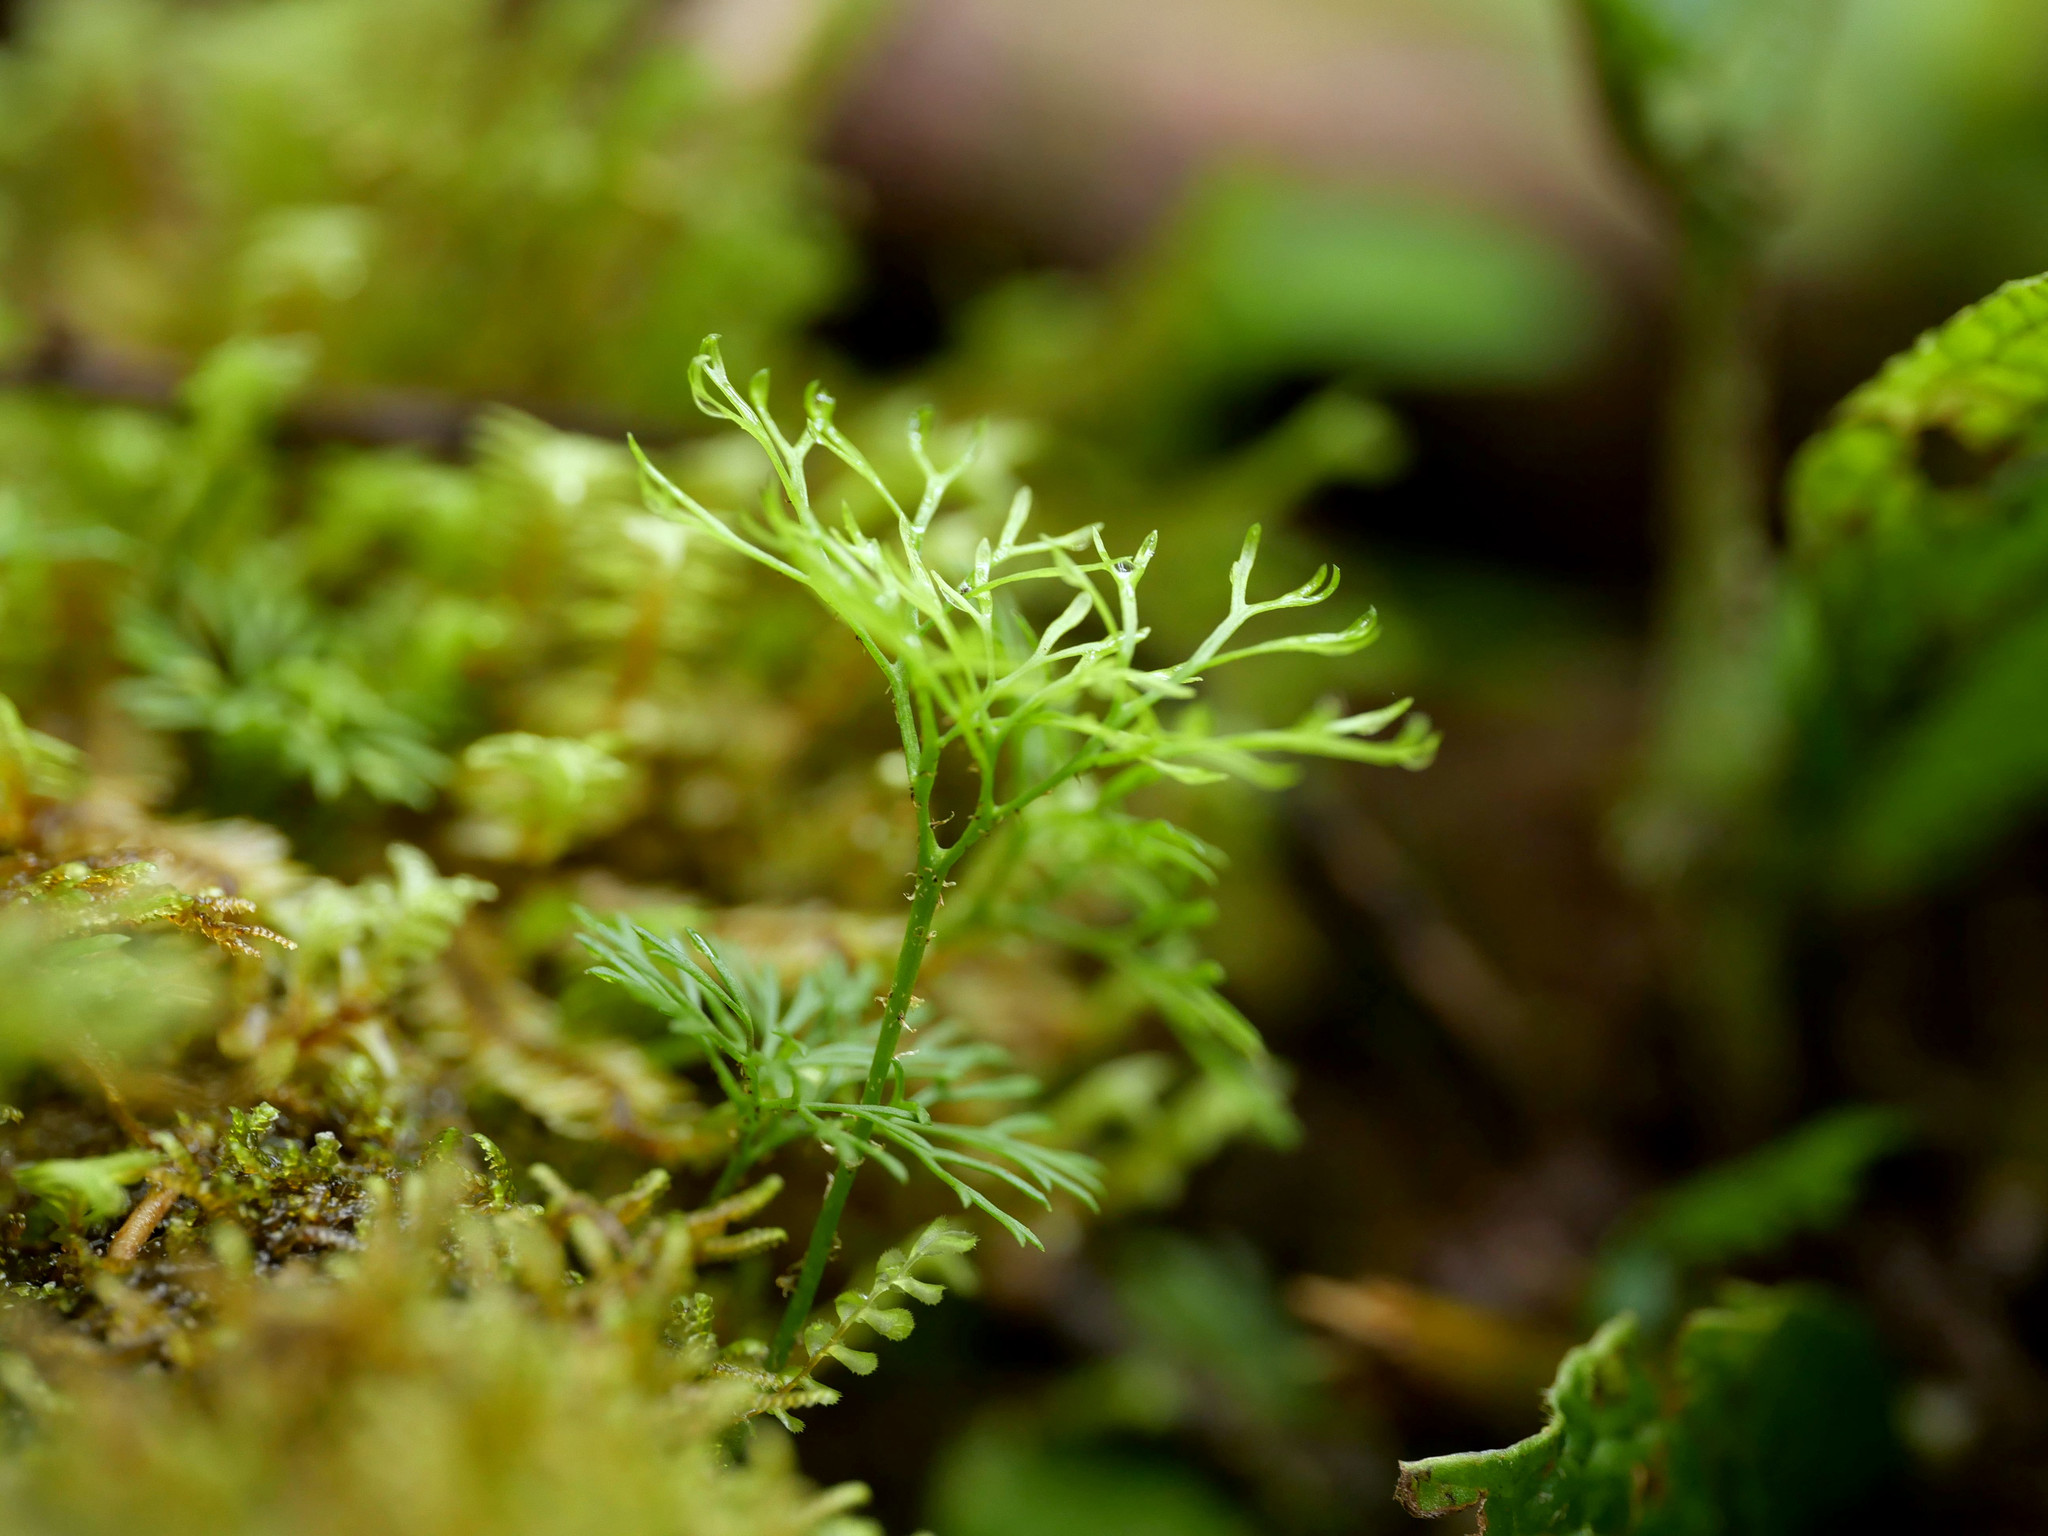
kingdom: Plantae
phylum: Tracheophyta
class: Polypodiopsida
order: Polypodiales
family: Dryopteridaceae
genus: Elaphoglossum
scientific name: Elaphoglossum peltatum
